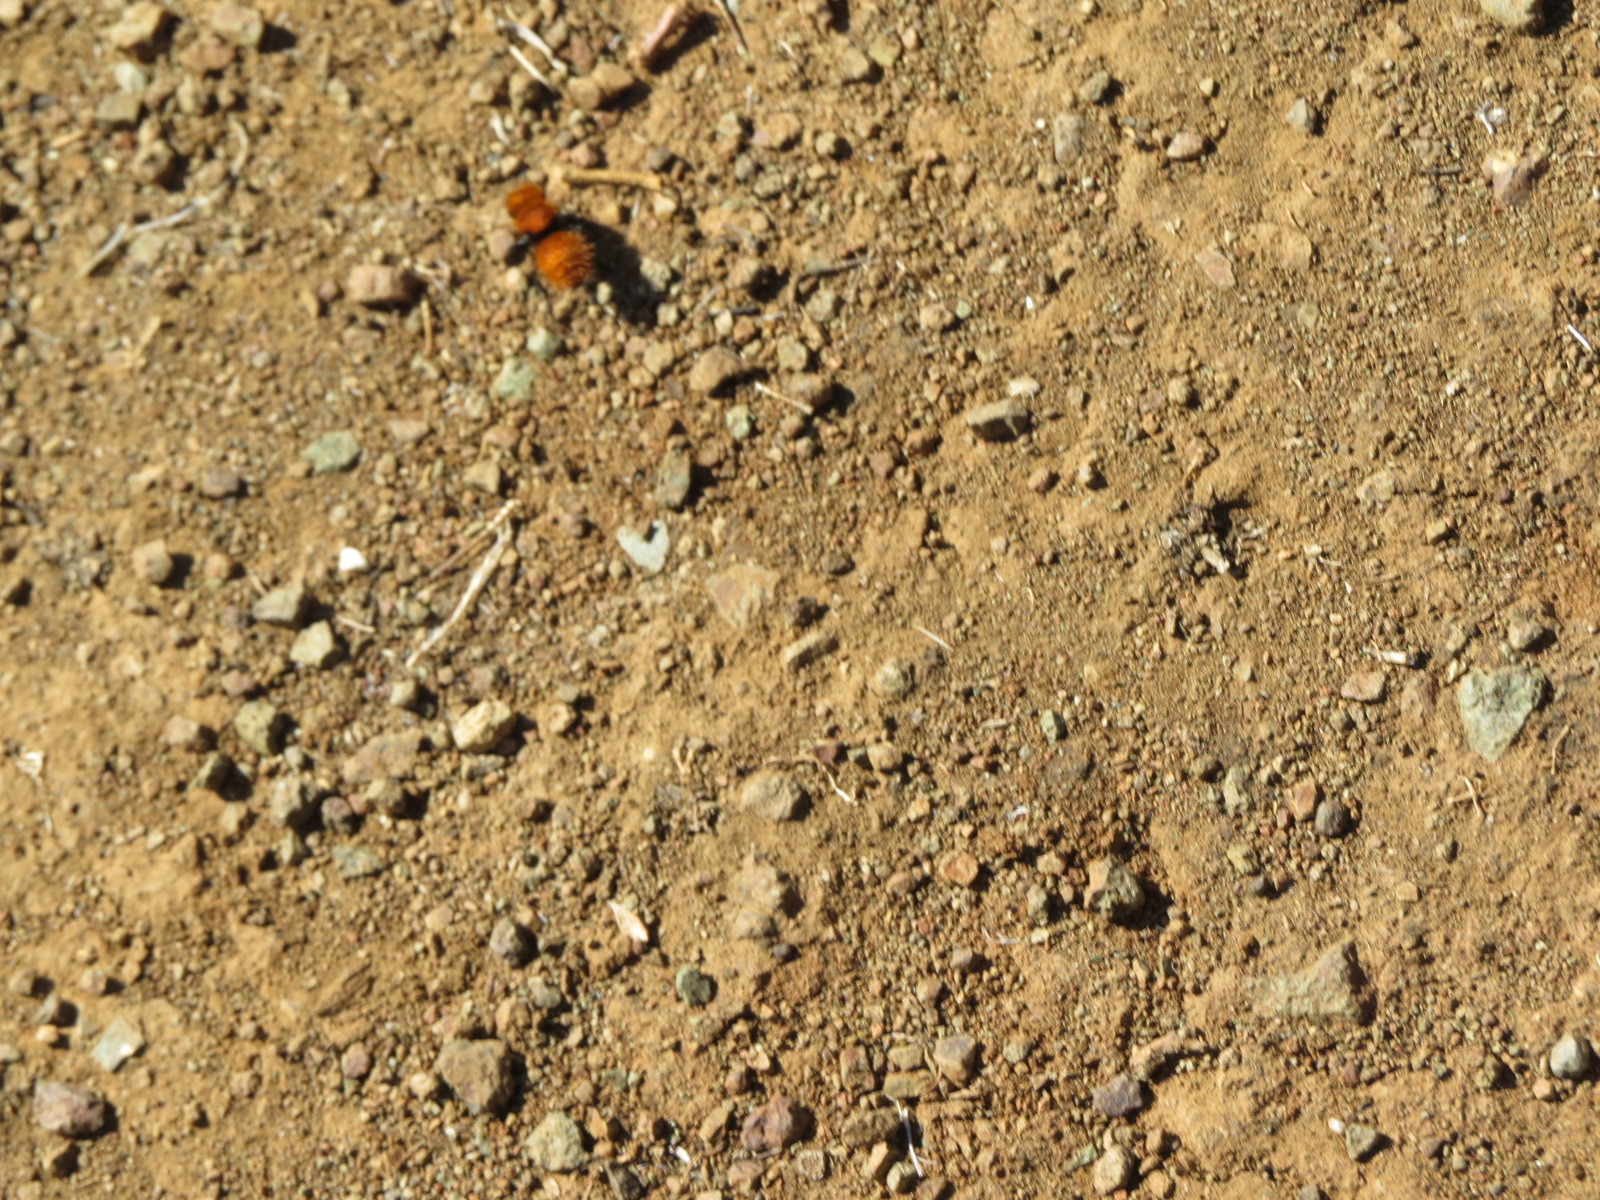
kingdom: Animalia
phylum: Arthropoda
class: Insecta
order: Hymenoptera
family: Mutillidae
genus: Dasymutilla
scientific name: Dasymutilla
